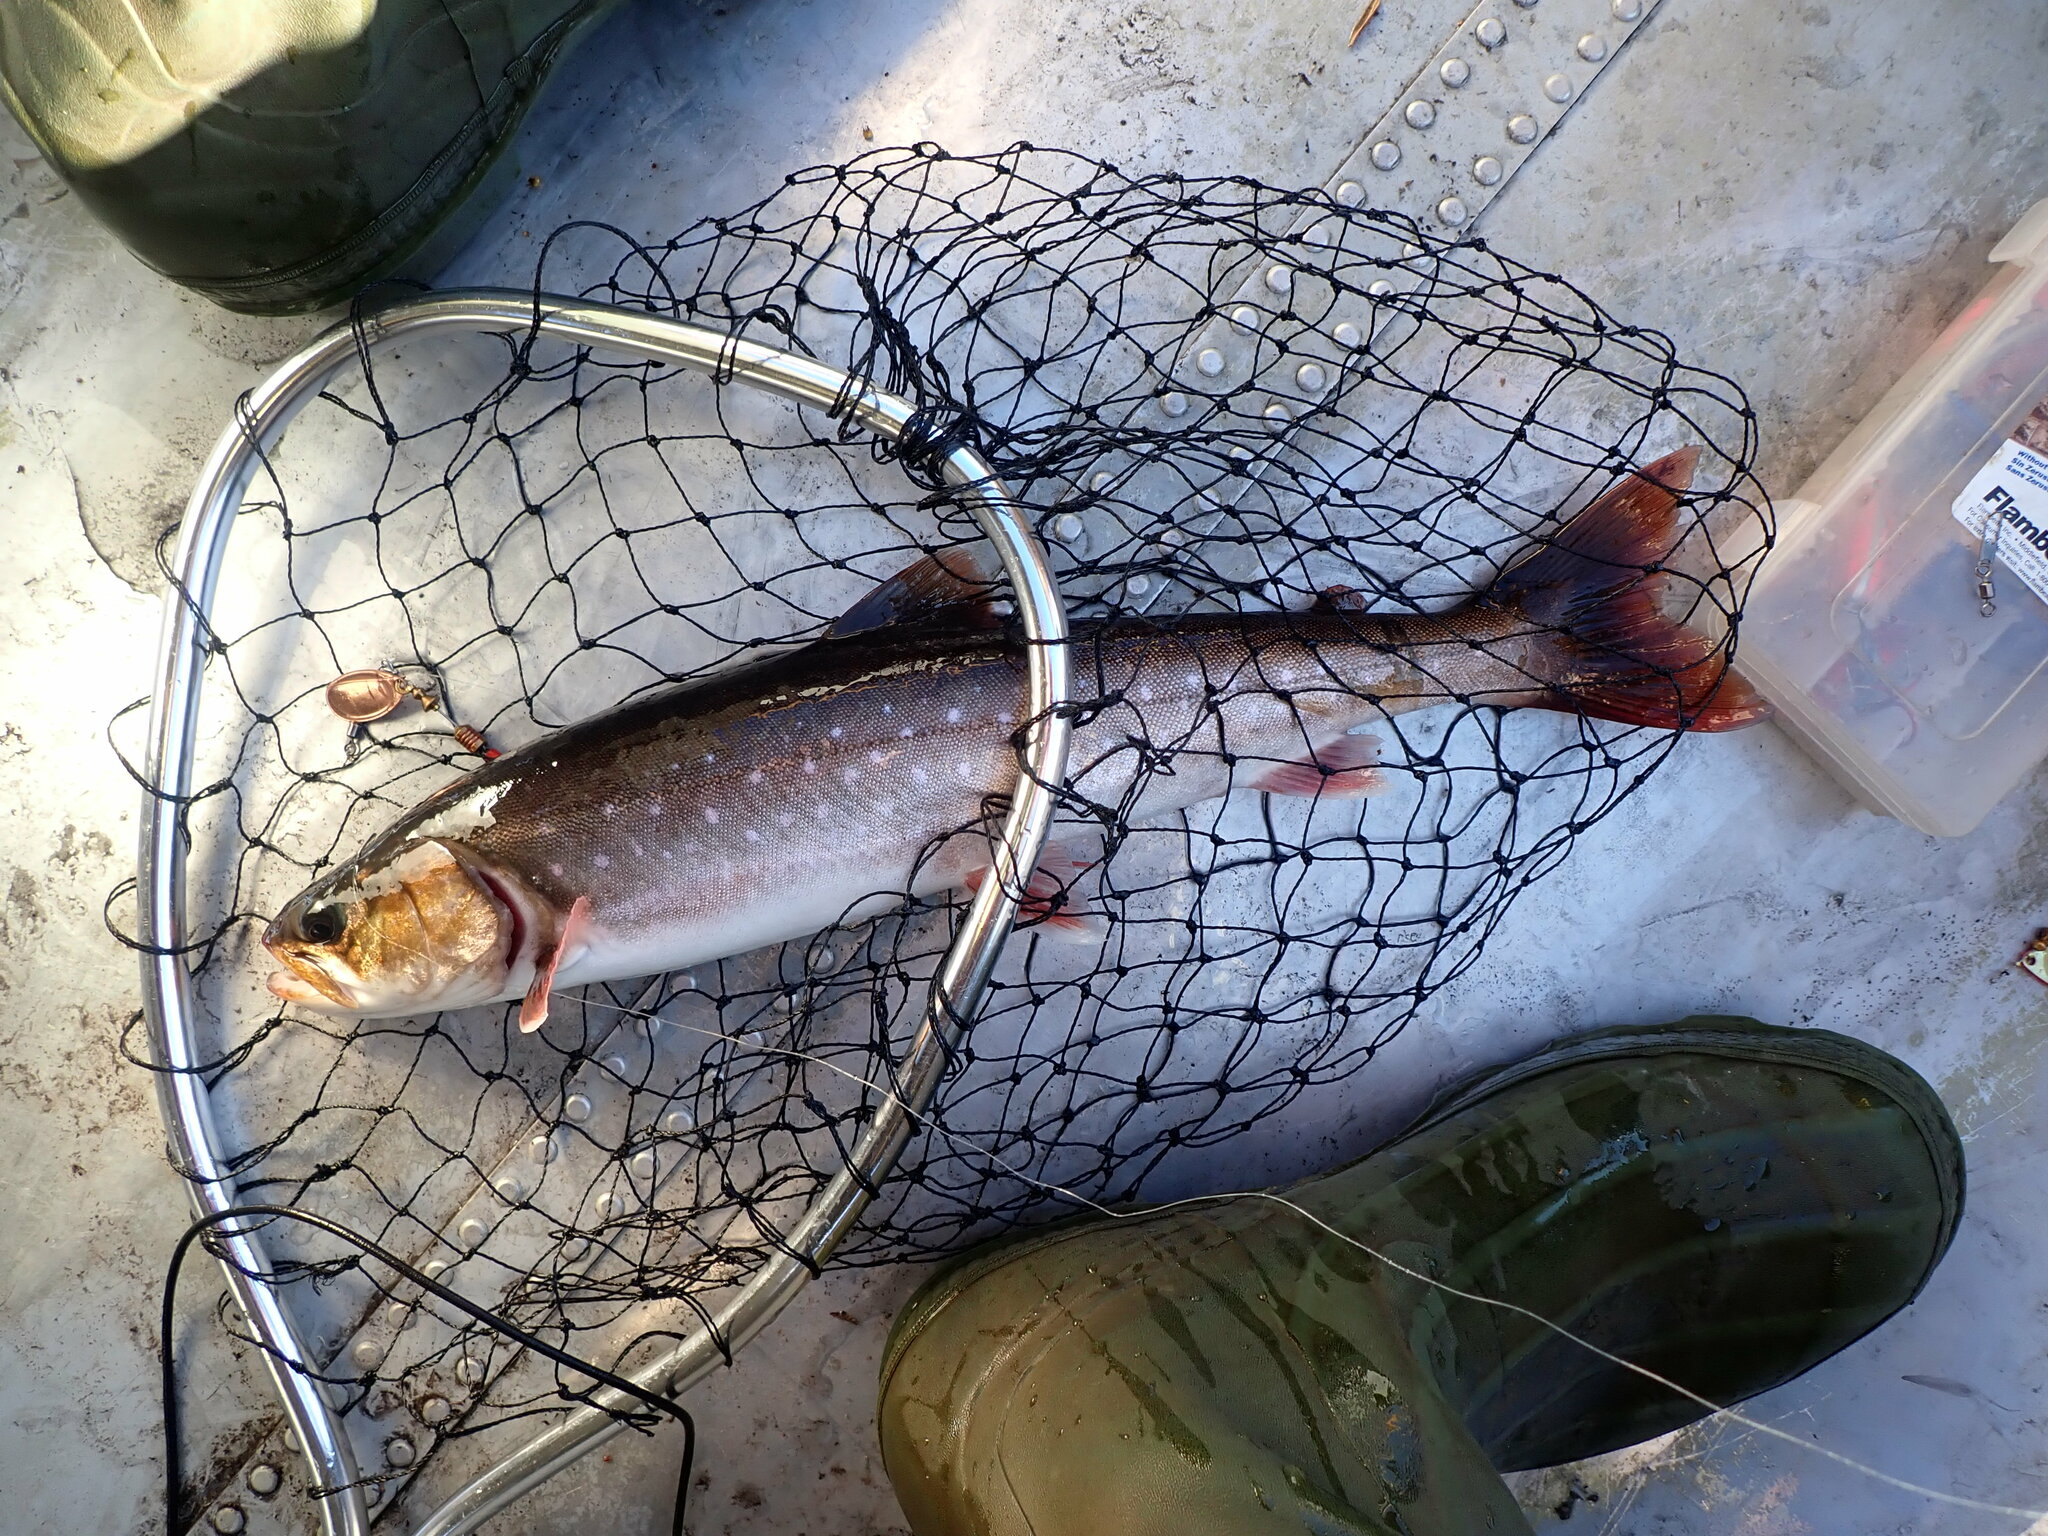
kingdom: Animalia
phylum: Chordata
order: Salmoniformes
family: Salmonidae
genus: Salvelinus
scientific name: Salvelinus alpinus
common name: Charr
